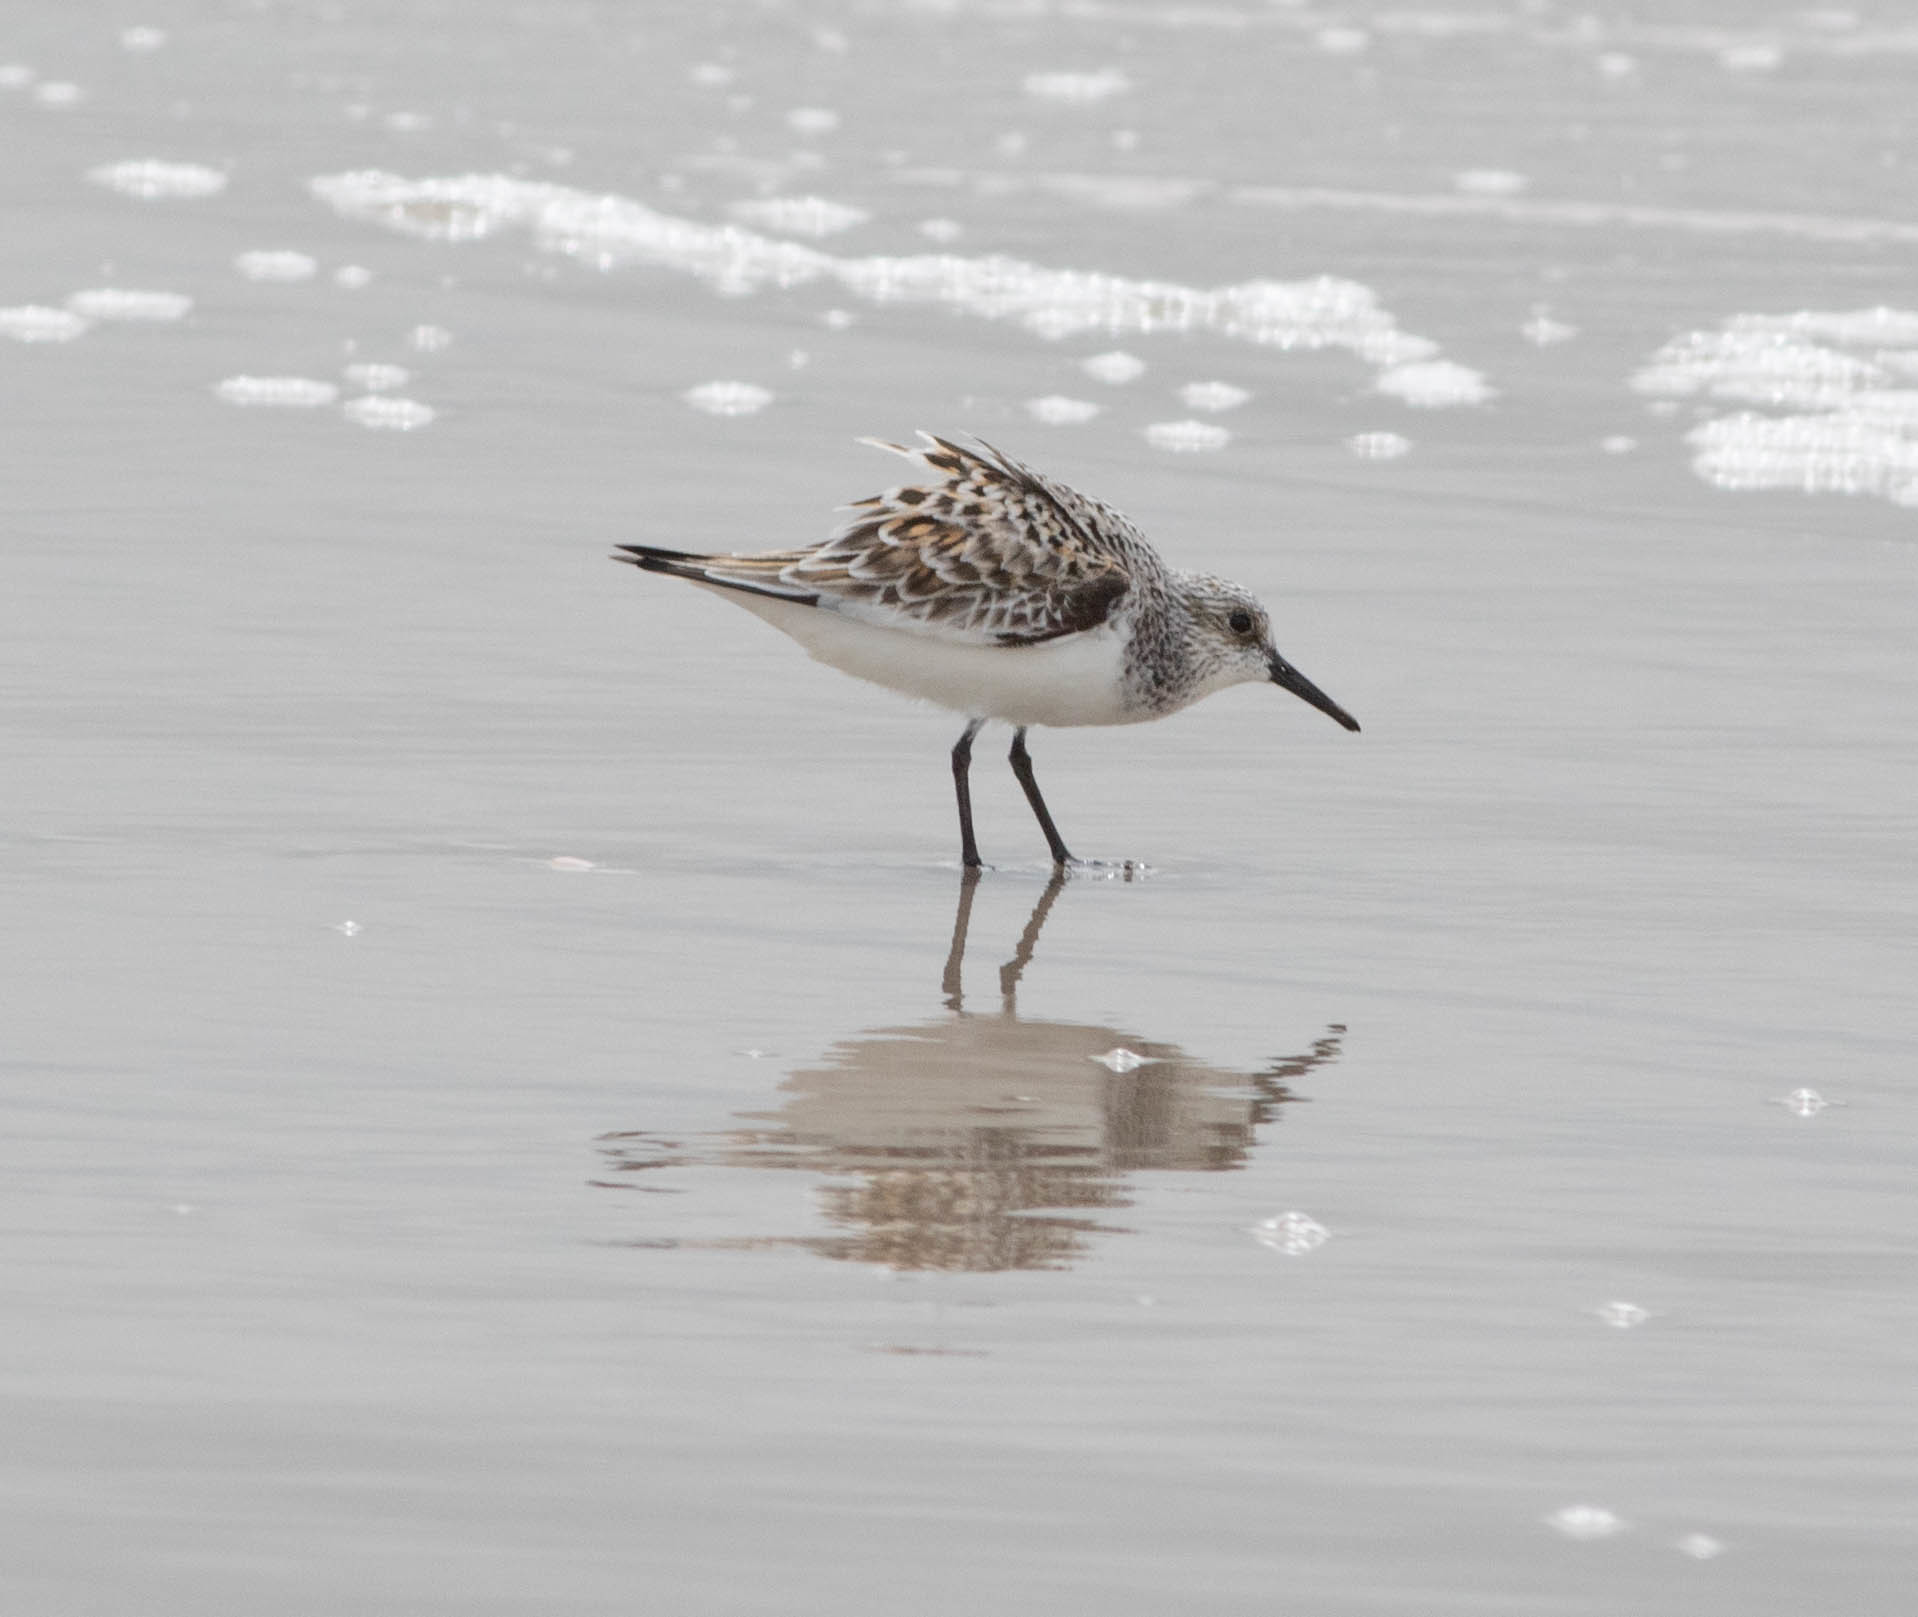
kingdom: Animalia
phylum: Chordata
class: Aves
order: Charadriiformes
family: Scolopacidae
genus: Calidris
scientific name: Calidris alba
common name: Sanderling
